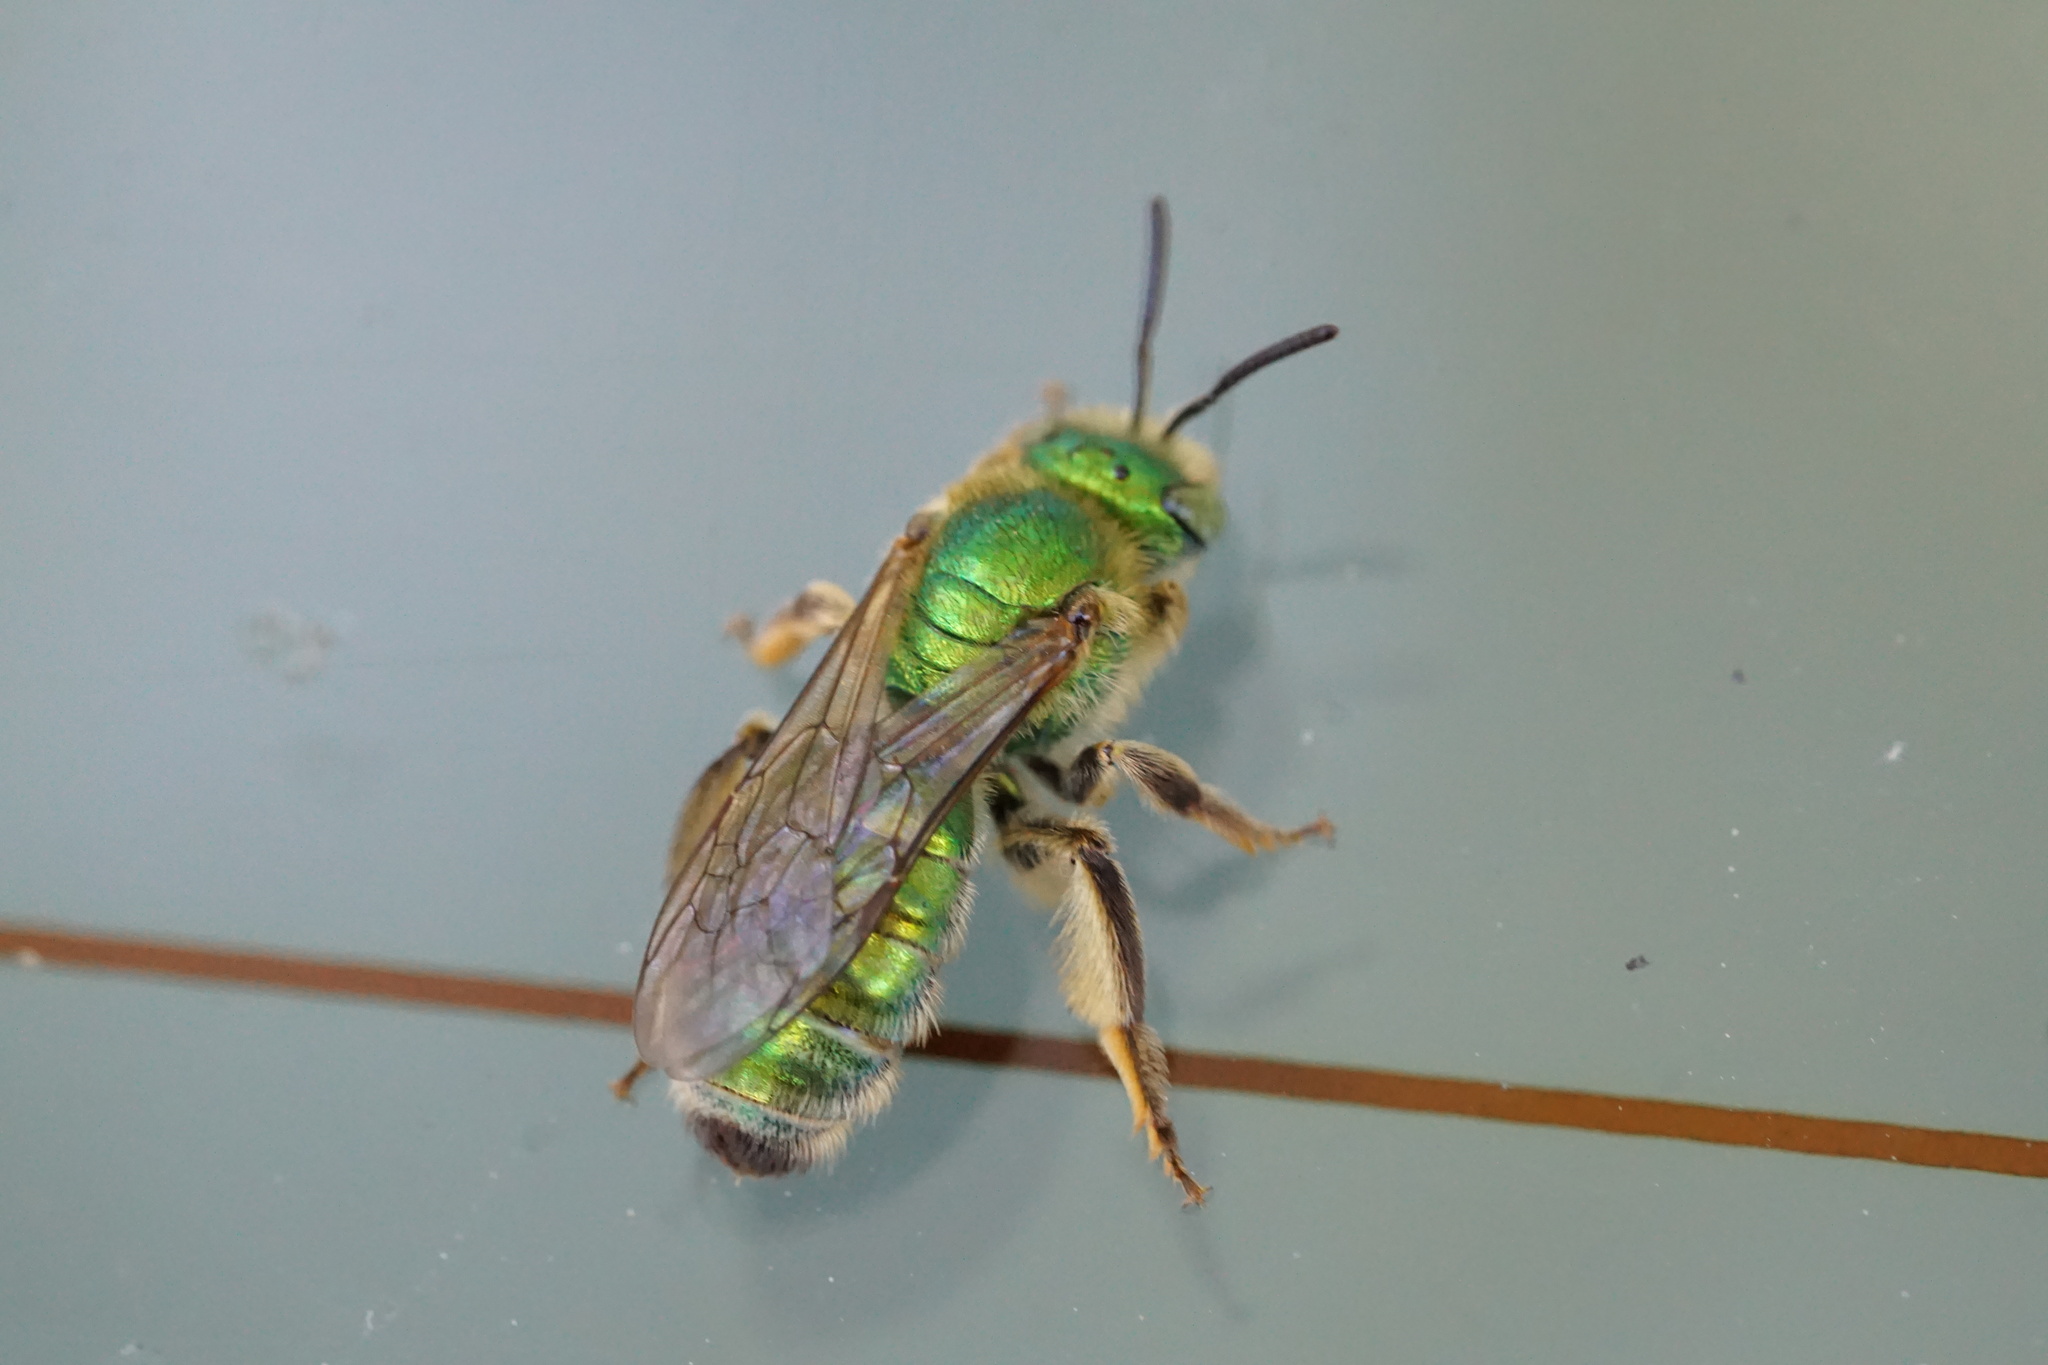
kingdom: Animalia
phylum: Arthropoda
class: Insecta
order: Hymenoptera
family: Halictidae
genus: Agapostemon
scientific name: Agapostemon texanus
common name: Texas striped sweat bee
